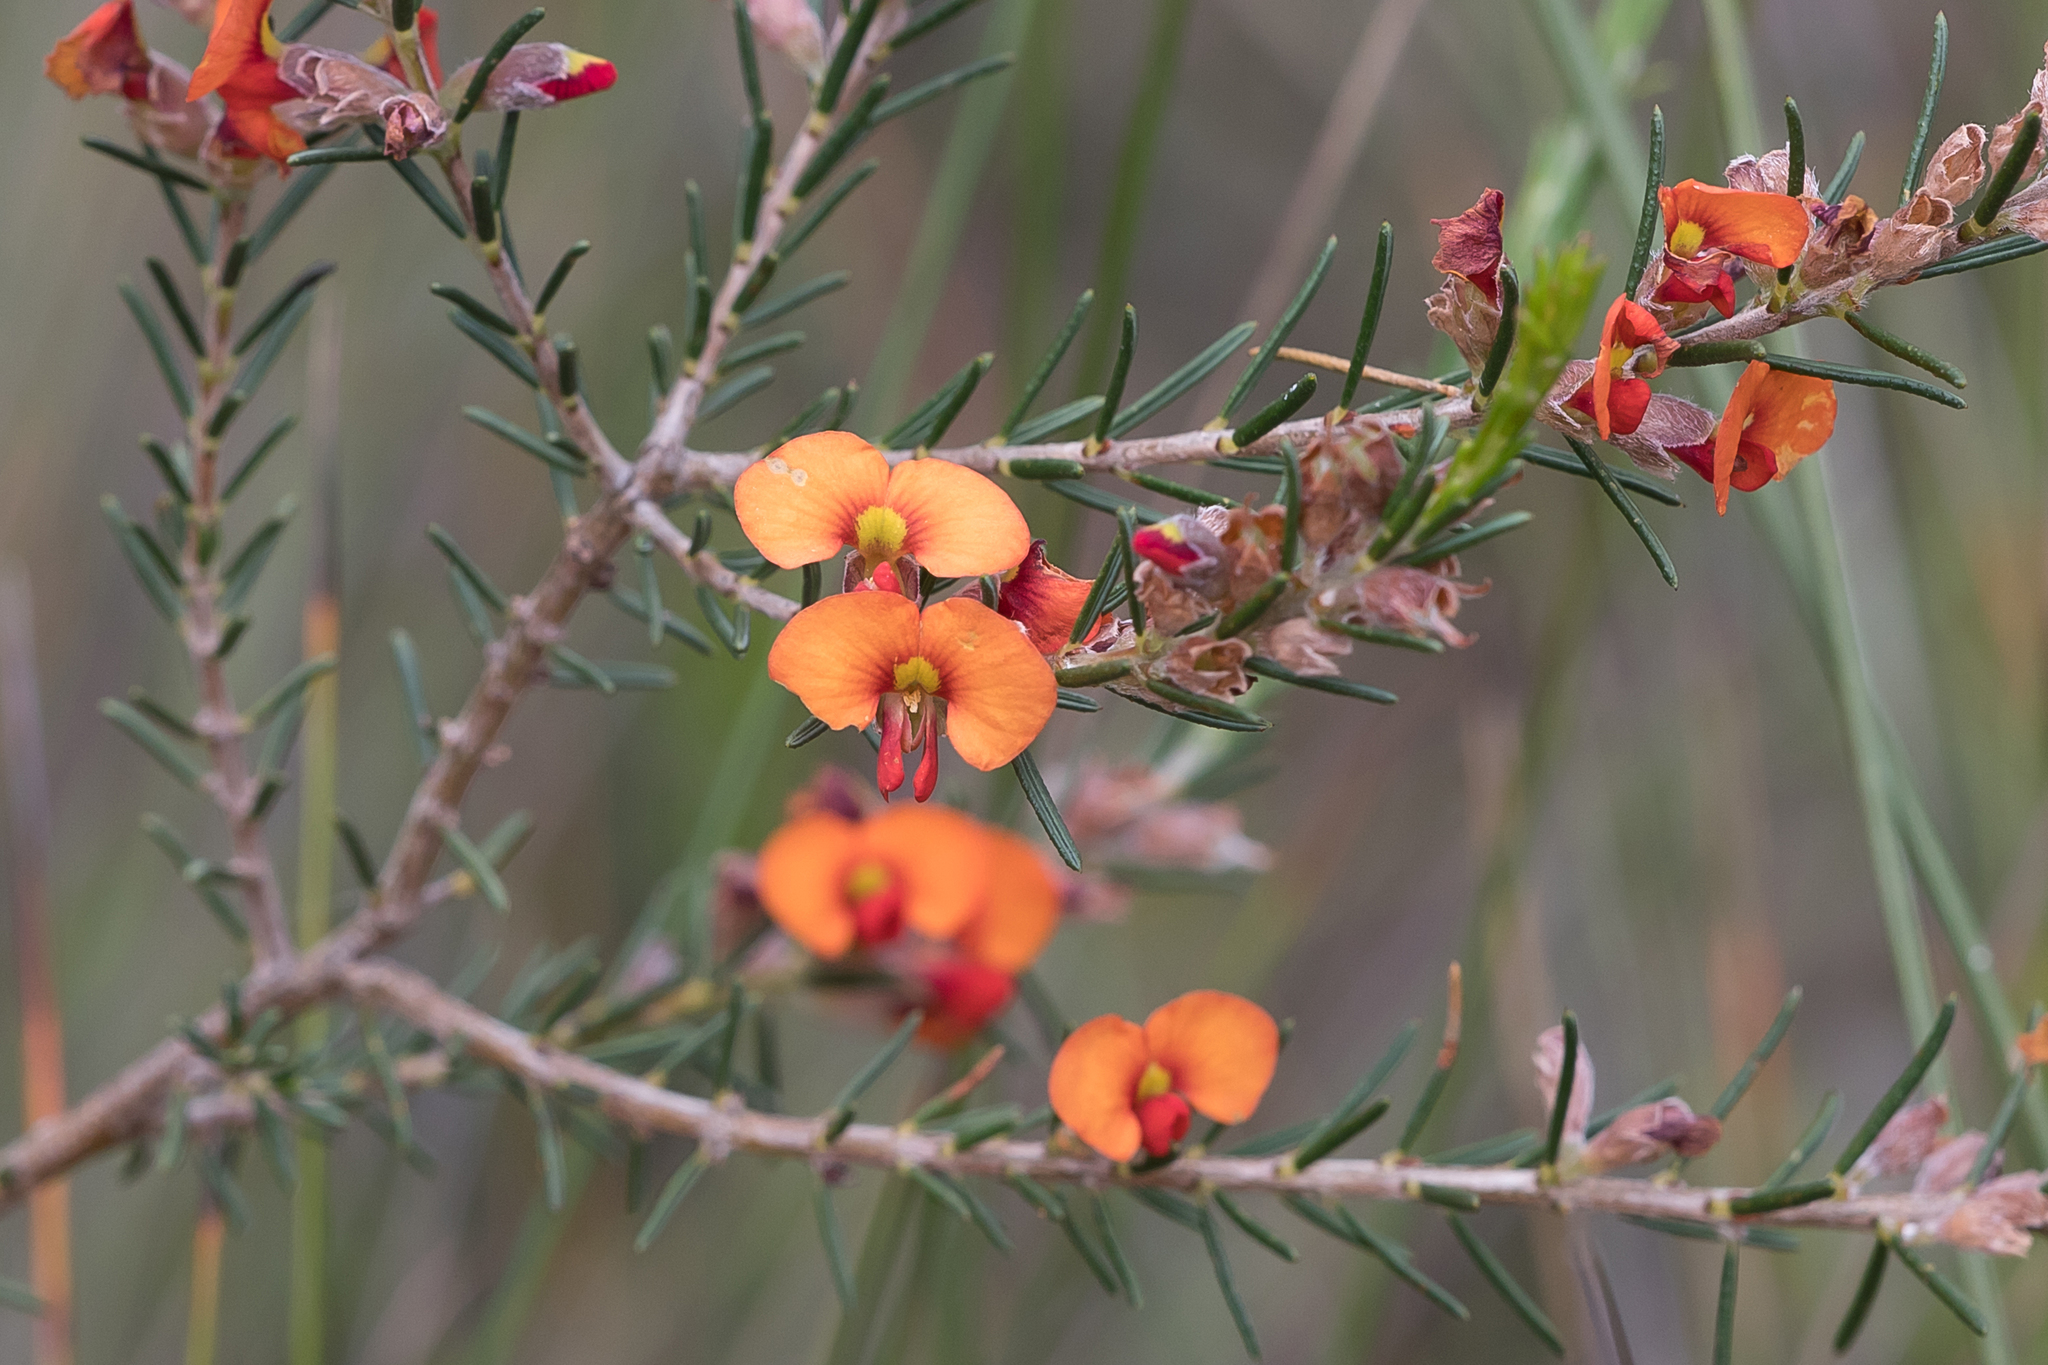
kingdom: Plantae
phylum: Tracheophyta
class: Magnoliopsida
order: Fabales
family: Fabaceae
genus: Dillwynia
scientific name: Dillwynia sericea
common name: Showy parrot-pea
